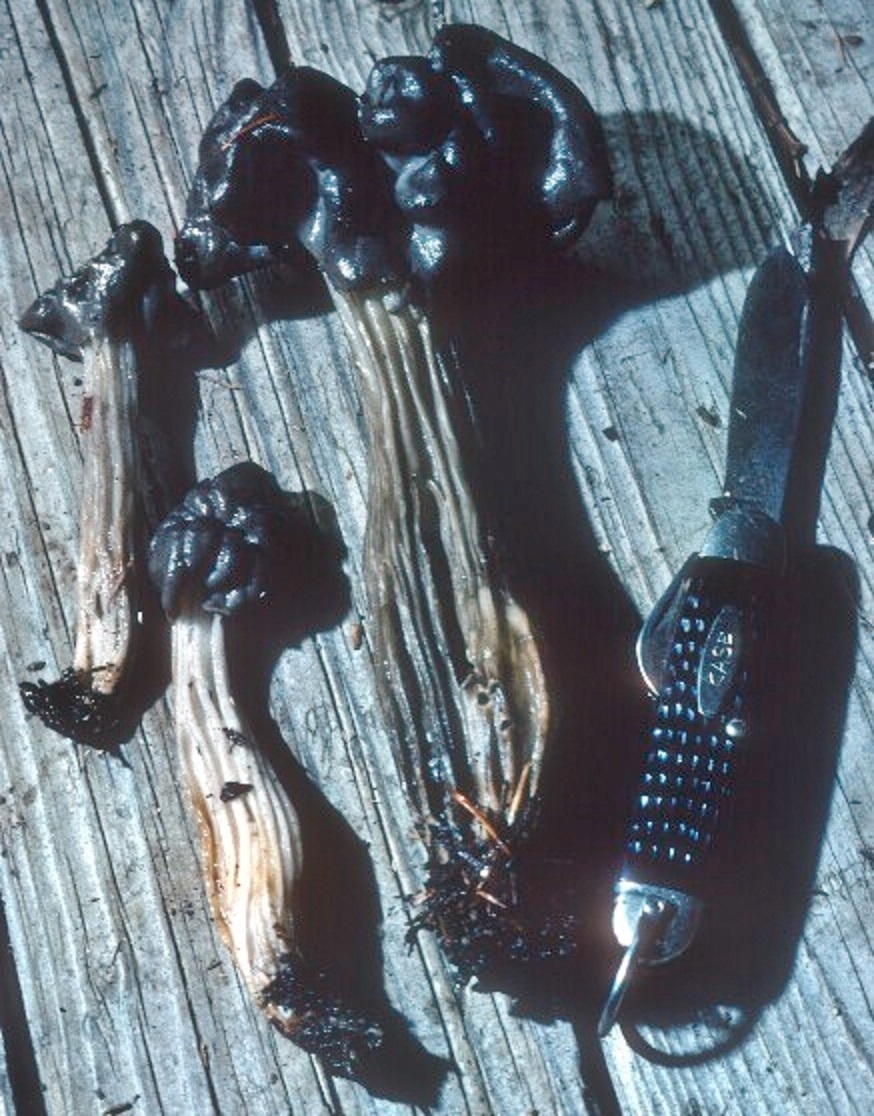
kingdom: Fungi
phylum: Ascomycota
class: Pezizomycetes
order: Pezizales
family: Helvellaceae
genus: Helvella
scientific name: Helvella vespertina
